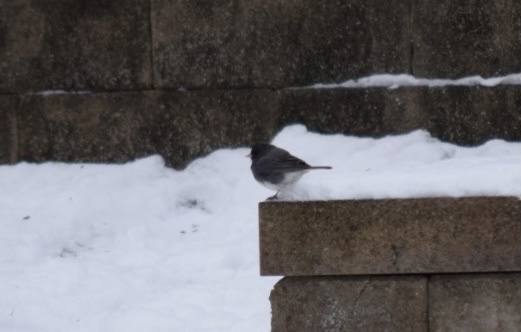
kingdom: Animalia
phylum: Chordata
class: Aves
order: Passeriformes
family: Passerellidae
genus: Junco
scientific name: Junco hyemalis
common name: Dark-eyed junco
